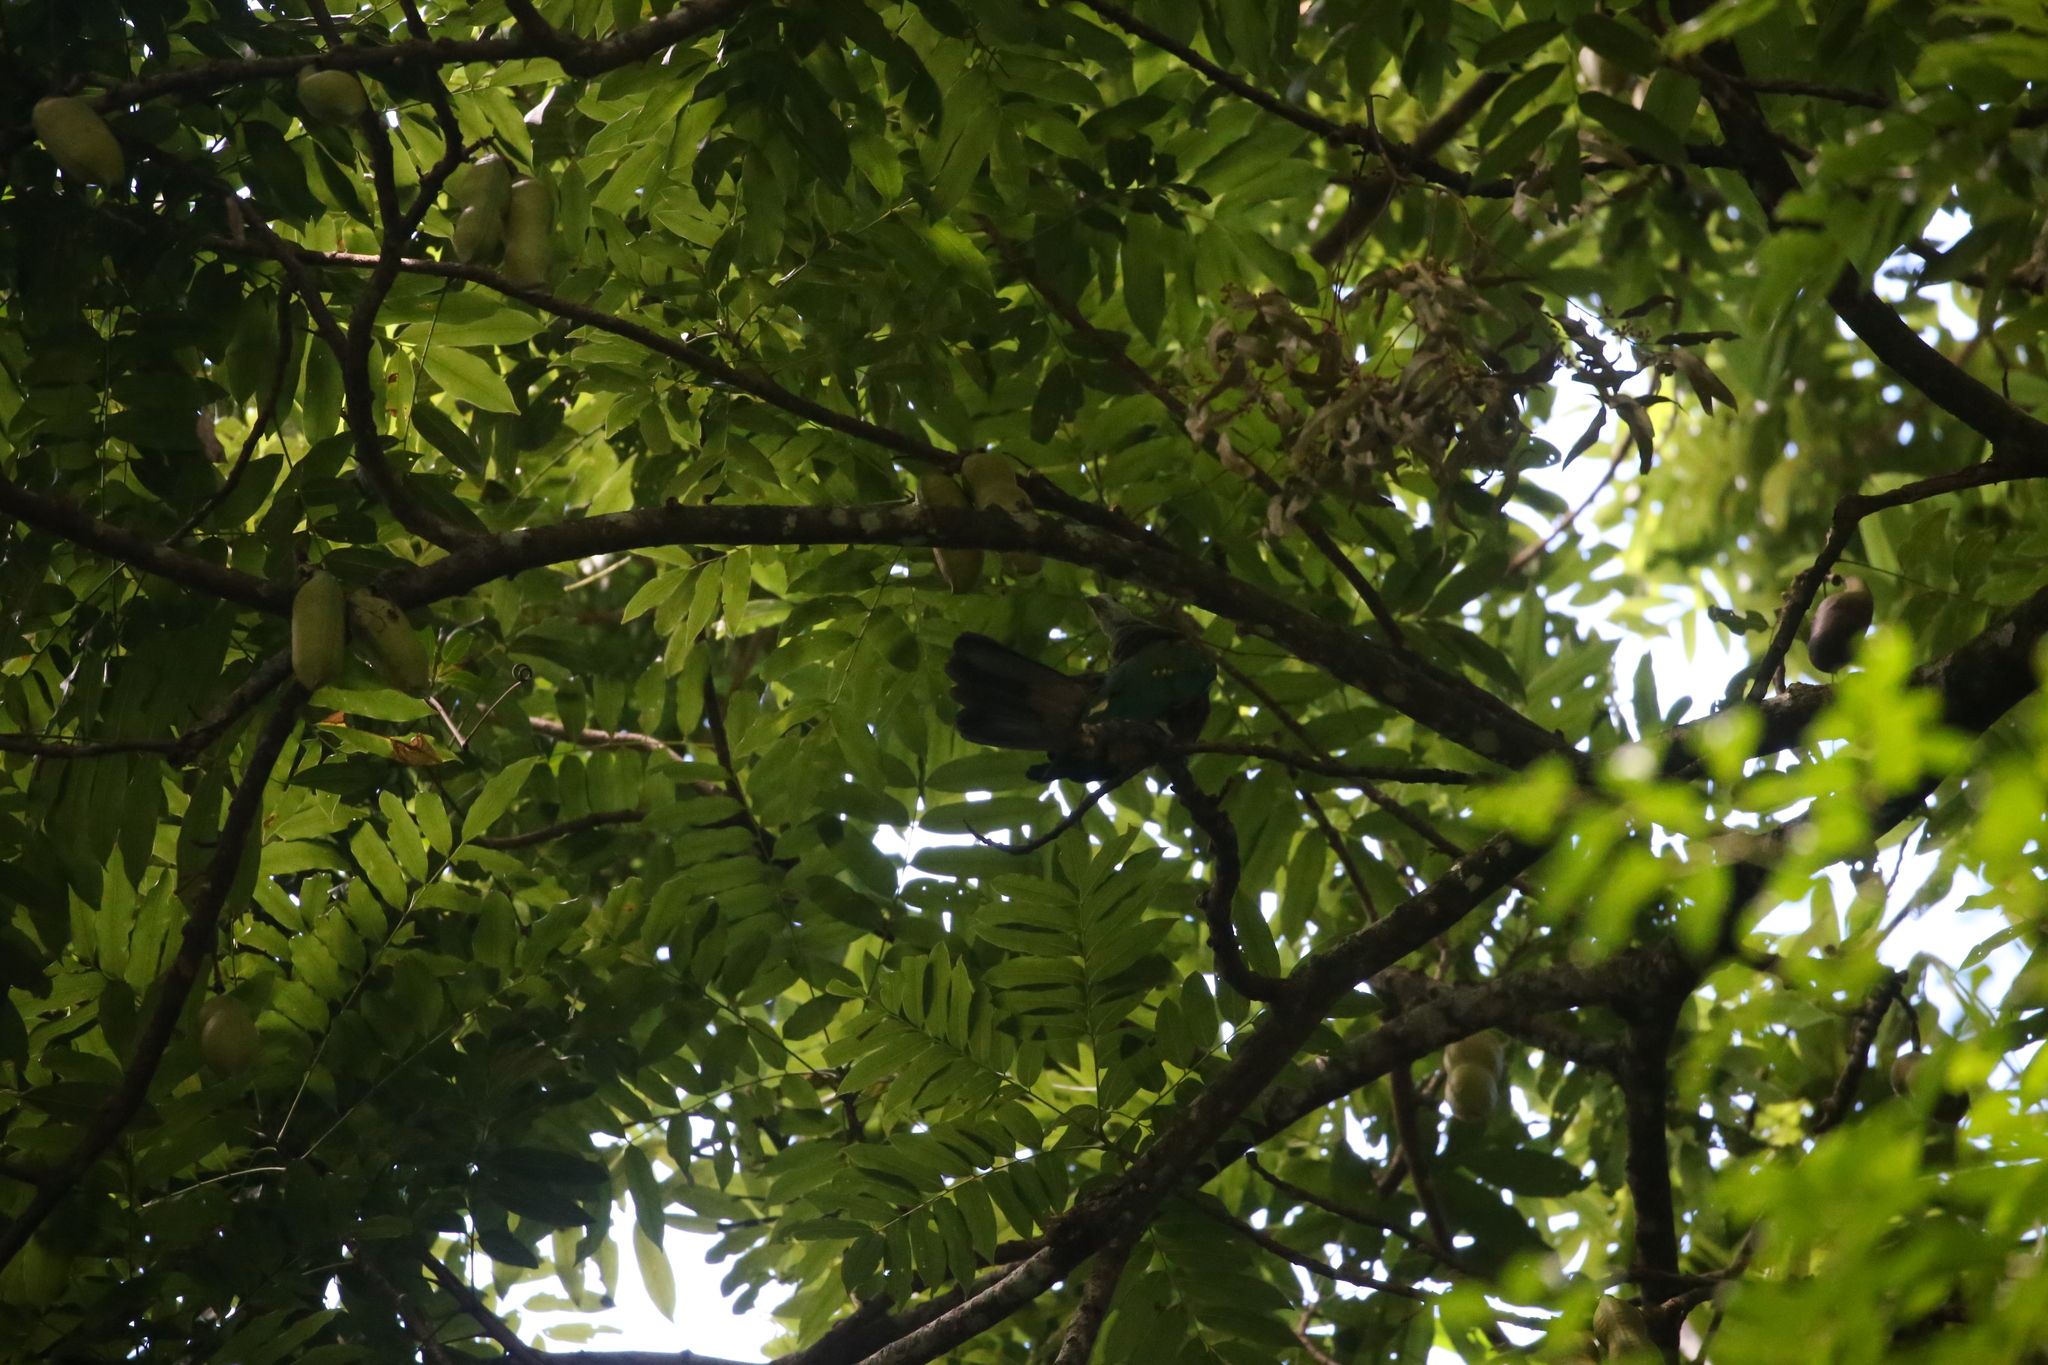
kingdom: Animalia
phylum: Chordata
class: Aves
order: Columbiformes
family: Columbidae
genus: Ptilinopus
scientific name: Ptilinopus magnificus
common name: Wompoo fruit dove
